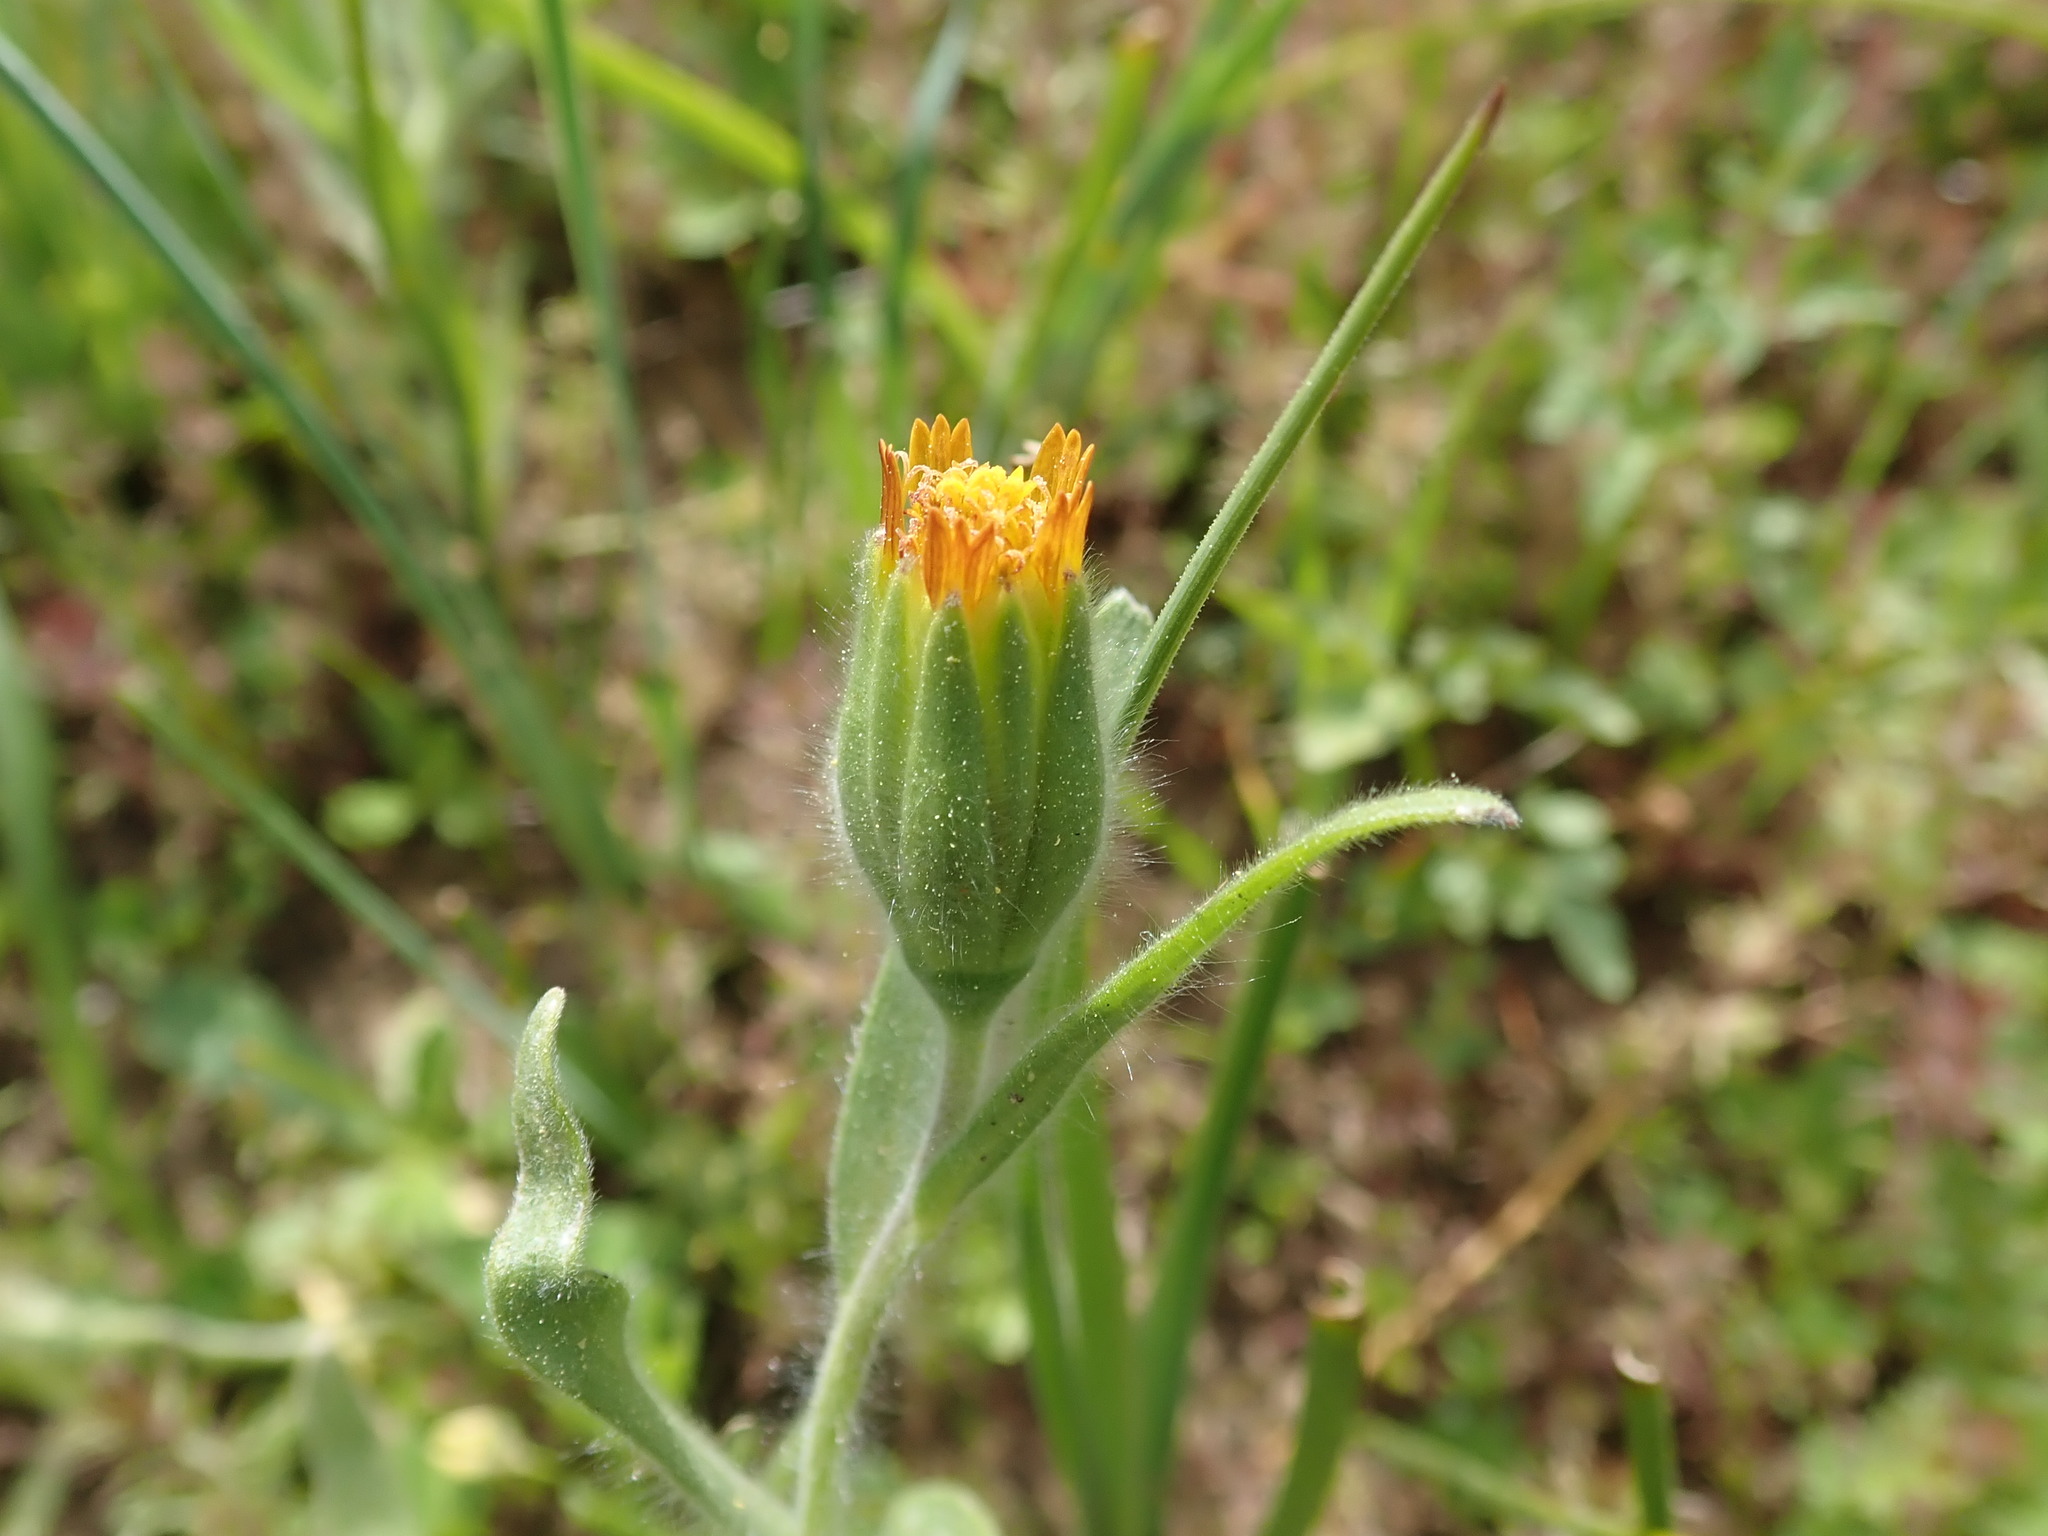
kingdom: Plantae
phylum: Tracheophyta
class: Magnoliopsida
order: Asterales
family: Asteraceae
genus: Achyrachaena
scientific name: Achyrachaena mollis
